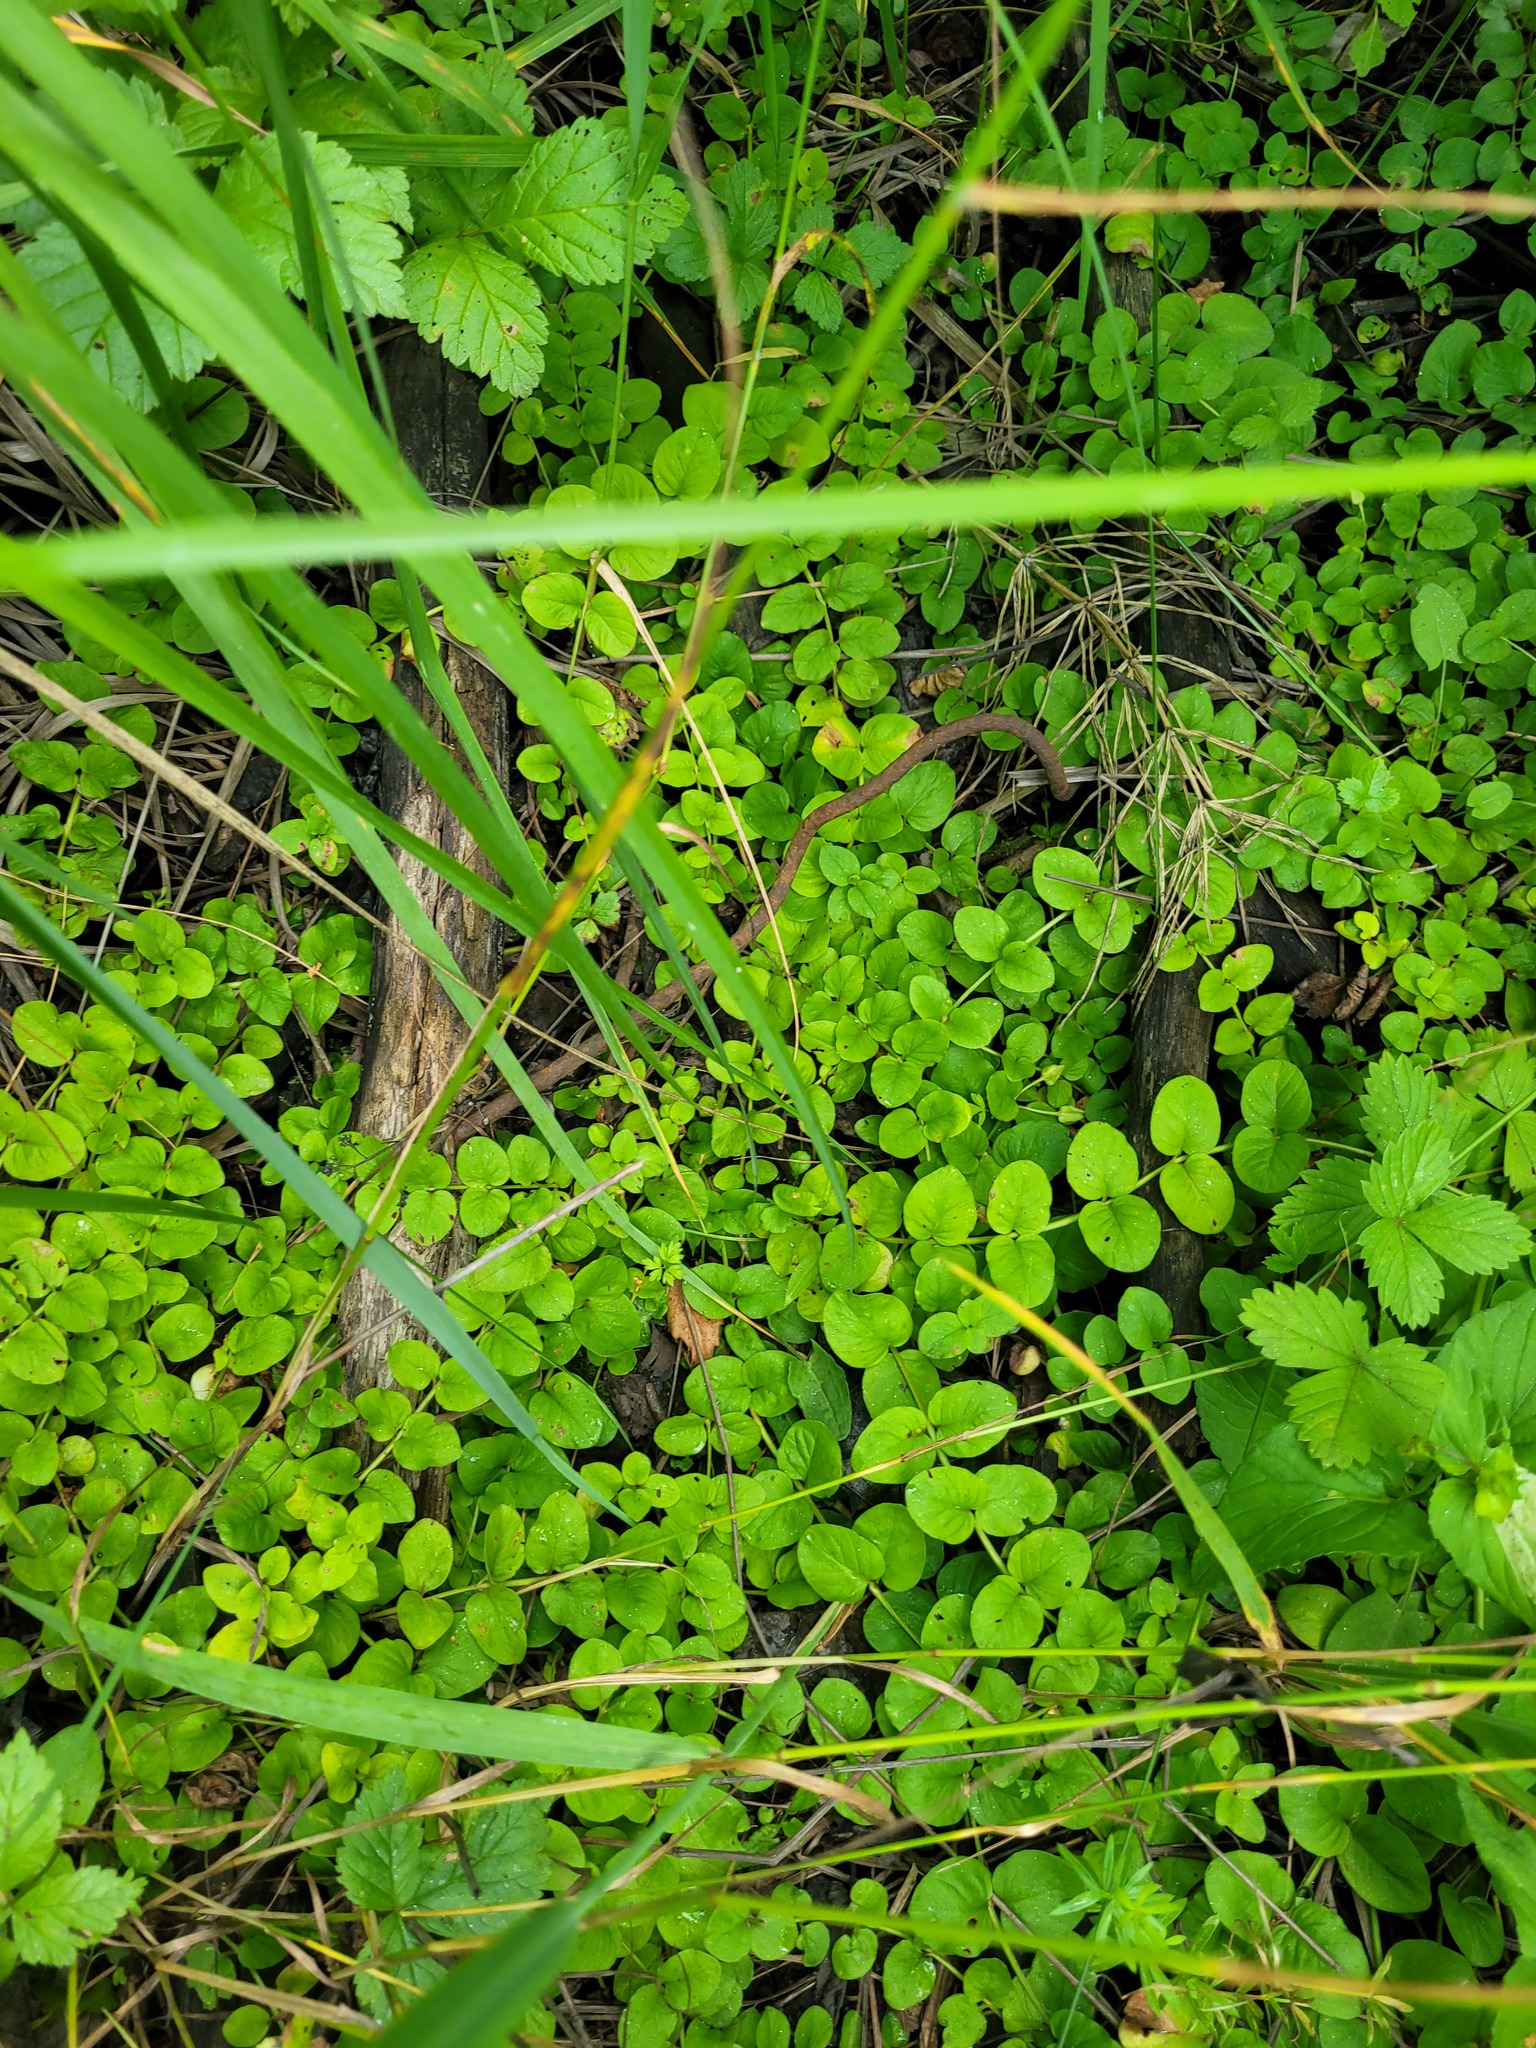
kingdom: Plantae
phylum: Tracheophyta
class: Magnoliopsida
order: Ericales
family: Primulaceae
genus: Lysimachia
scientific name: Lysimachia nummularia
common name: Moneywort
